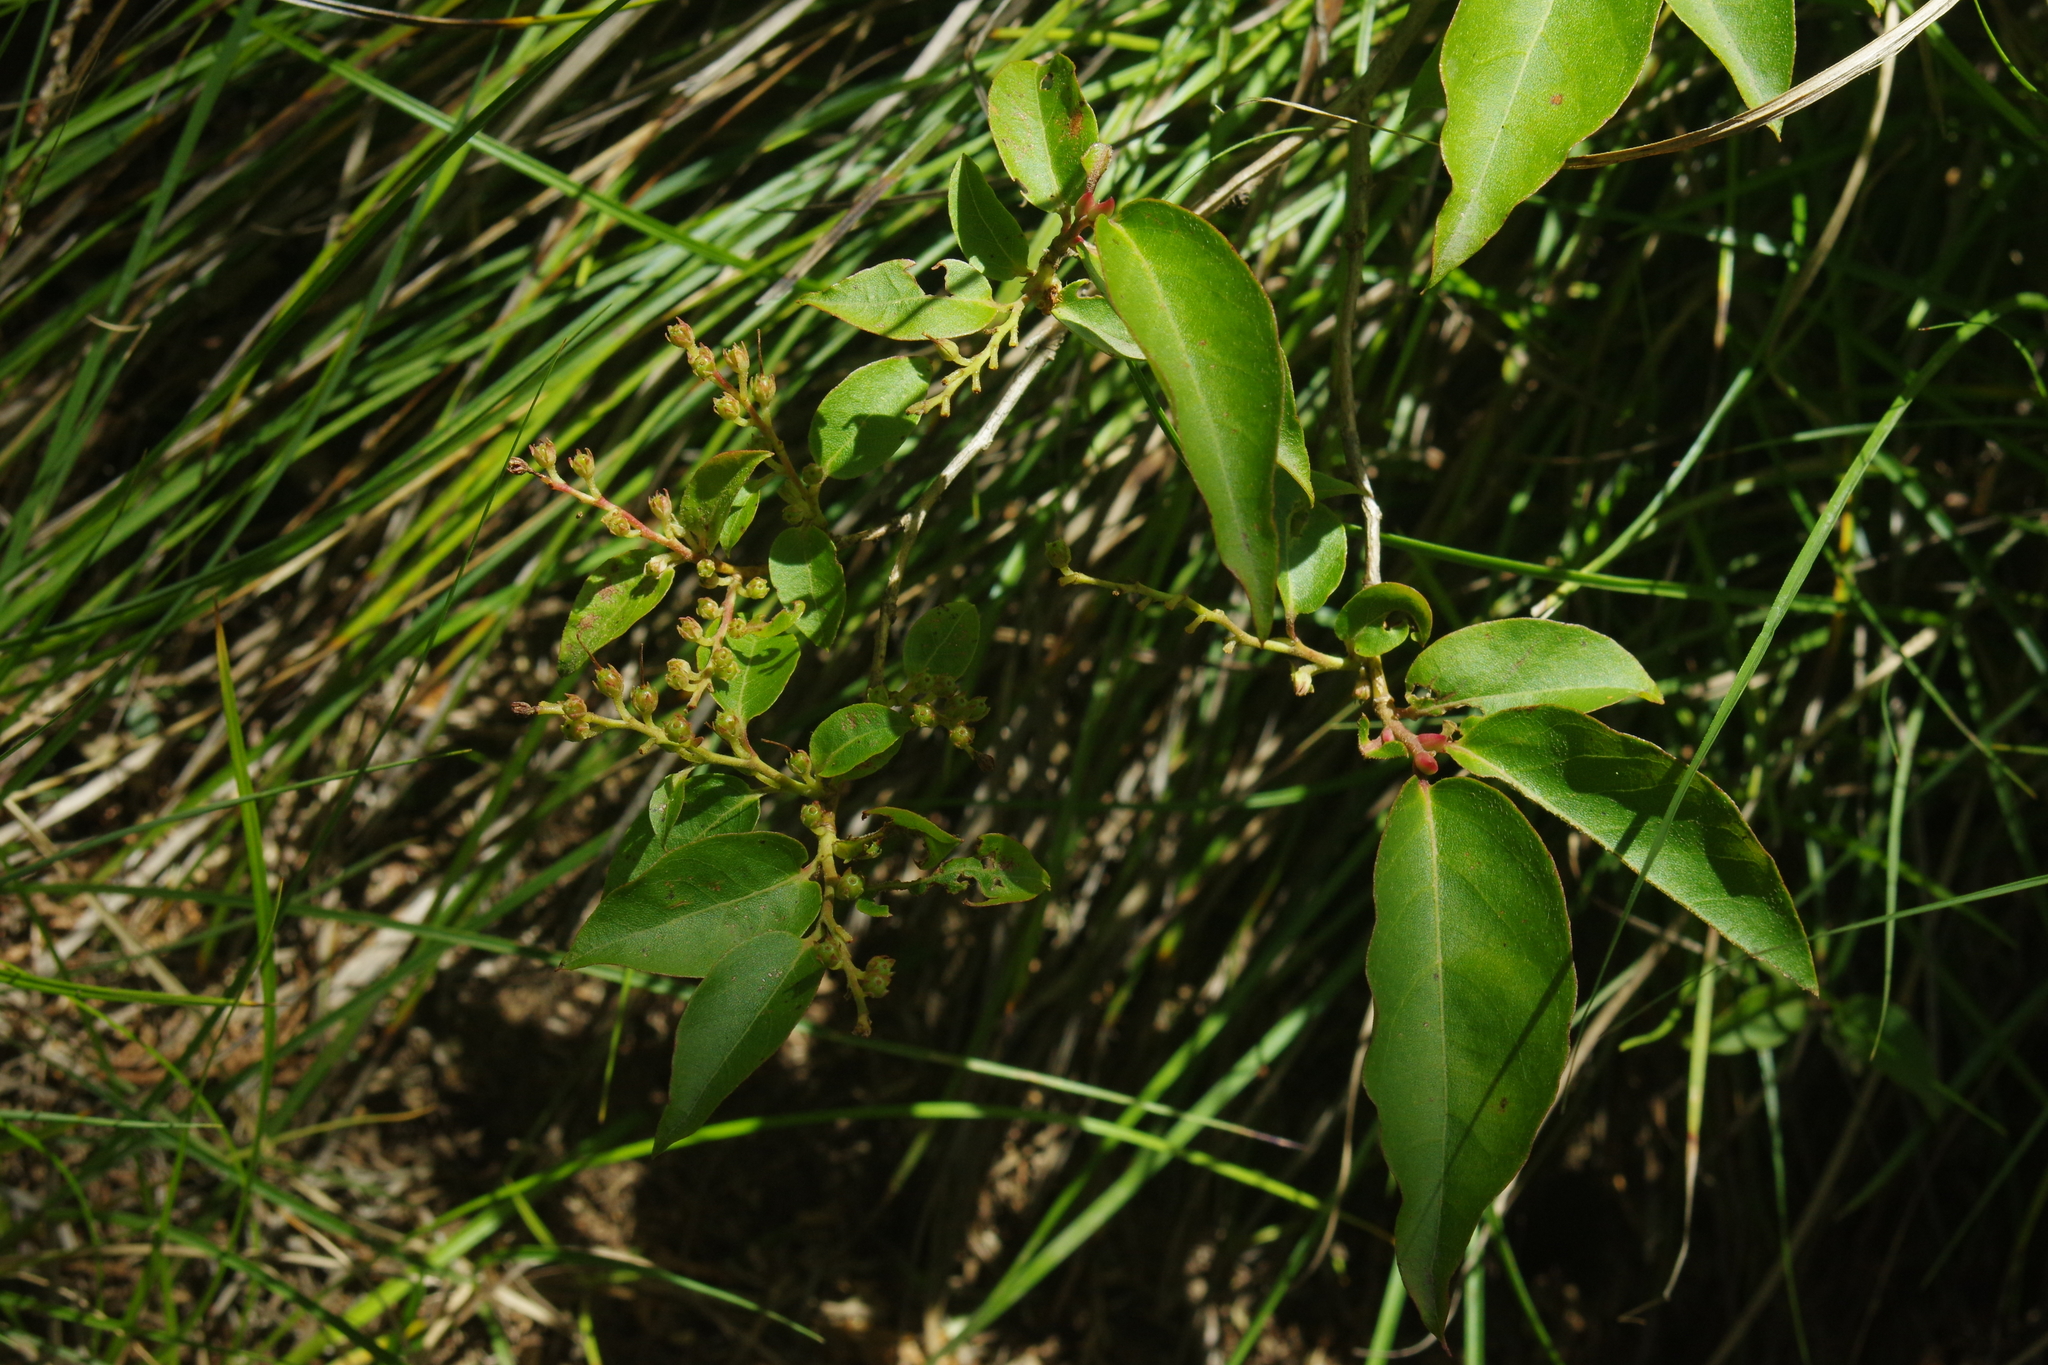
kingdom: Plantae
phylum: Tracheophyta
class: Magnoliopsida
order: Ericales
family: Ericaceae
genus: Lyonia
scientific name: Lyonia ovalifolia
